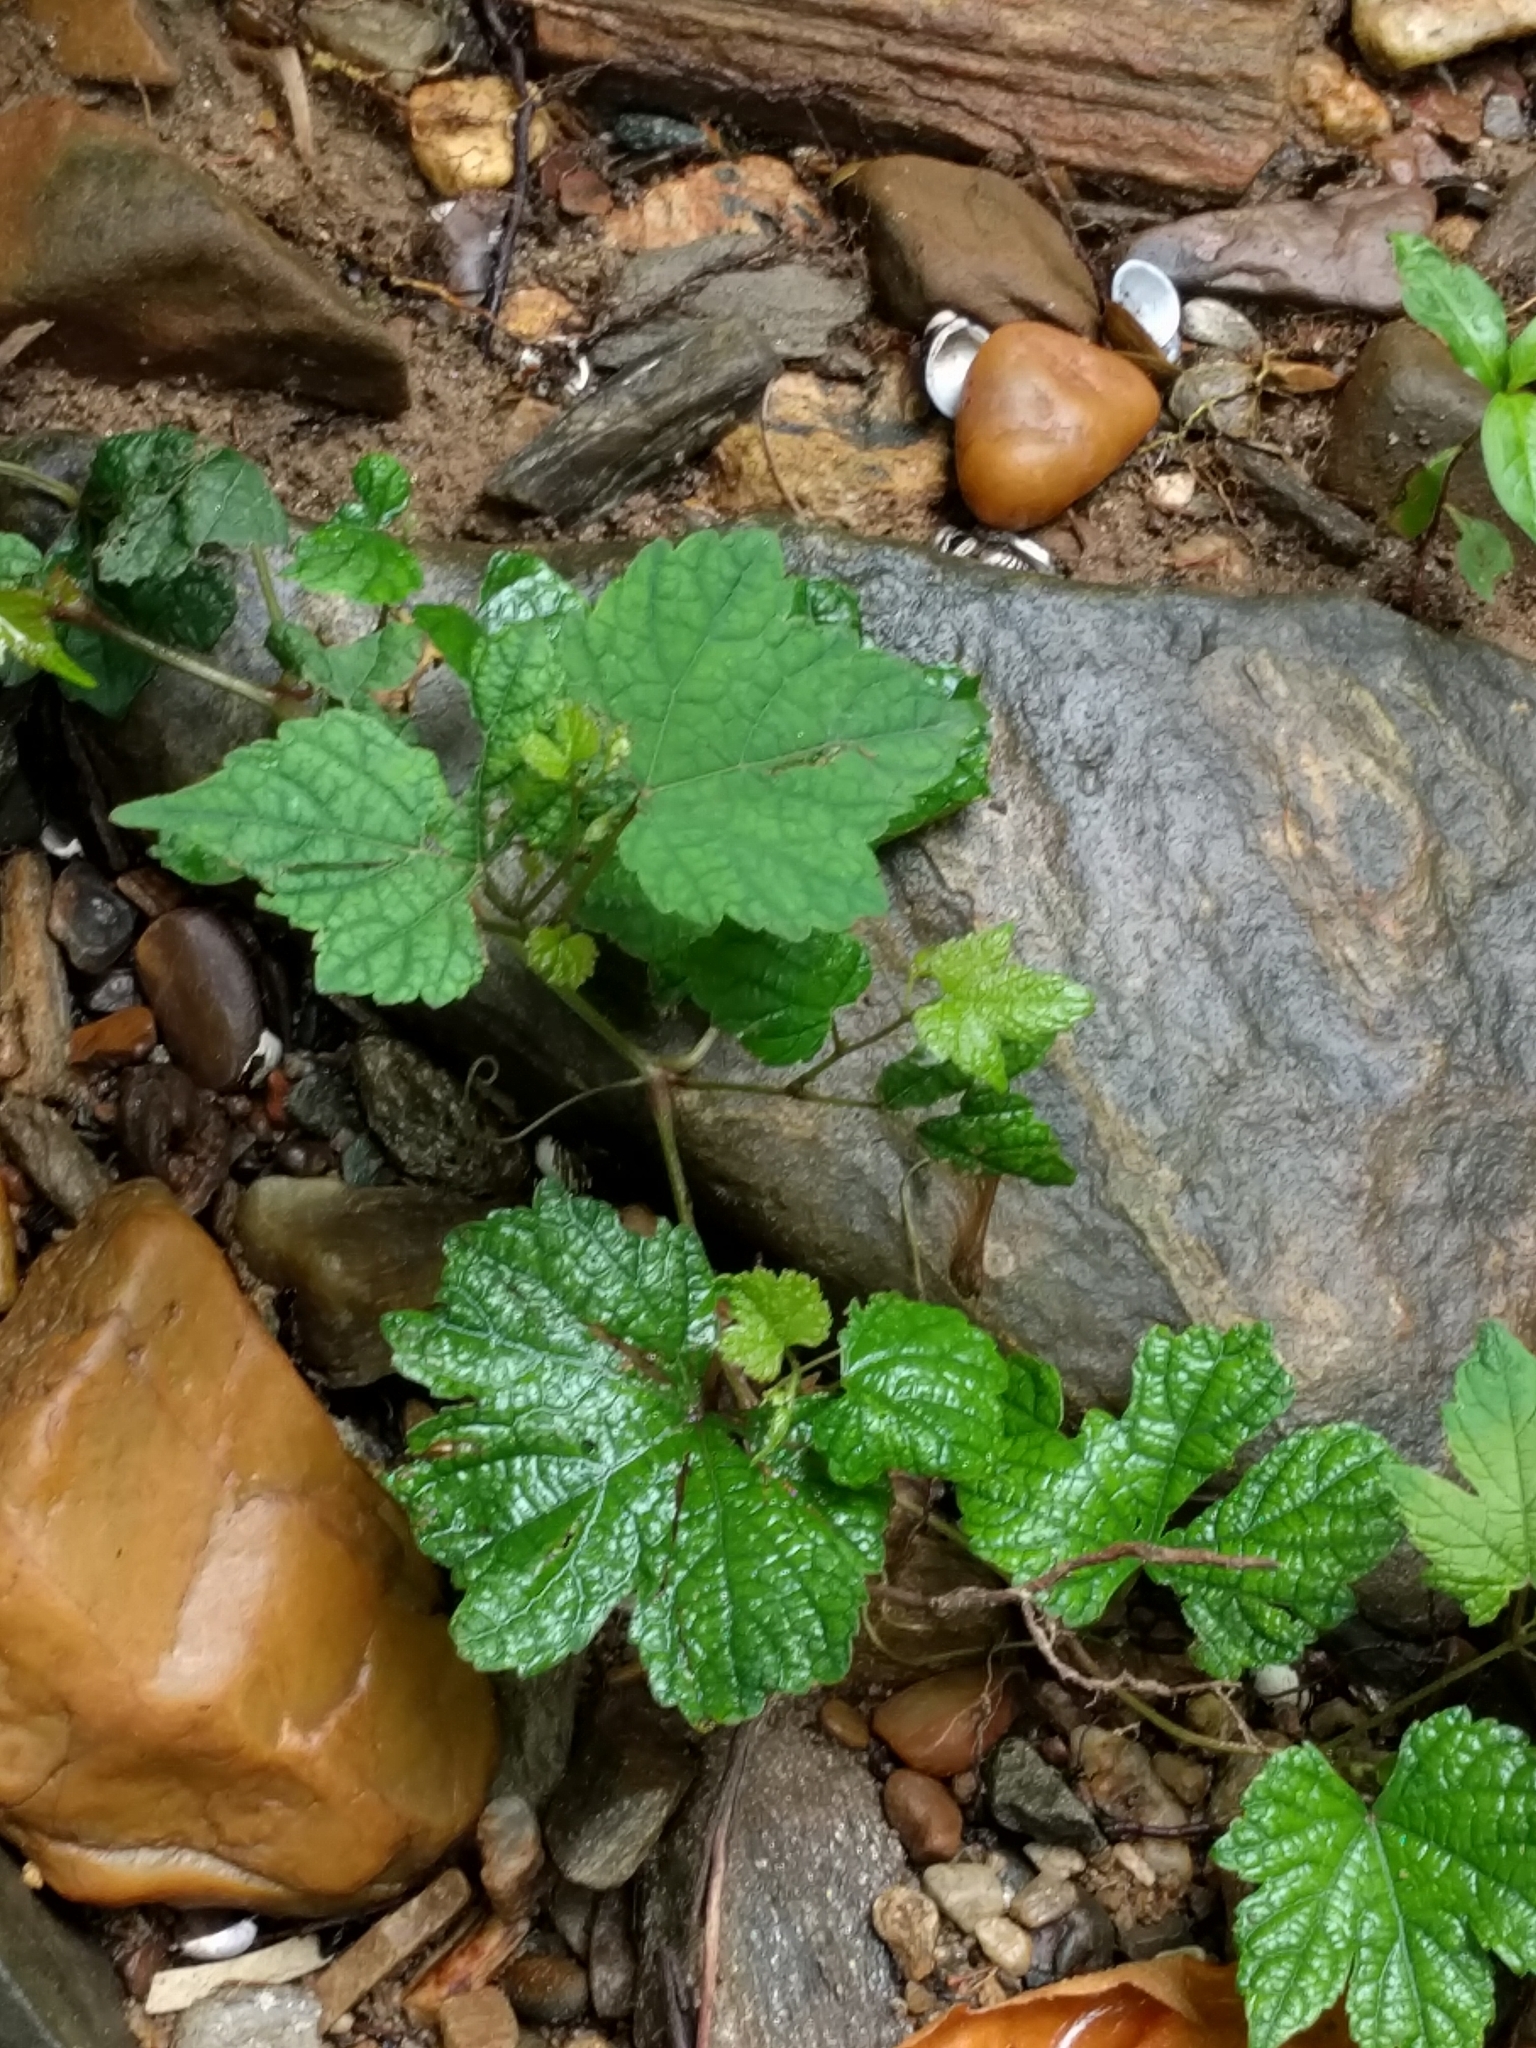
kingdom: Plantae
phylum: Tracheophyta
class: Magnoliopsida
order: Vitales
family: Vitaceae
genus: Ampelopsis
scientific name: Ampelopsis glandulosa
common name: Amur peppervine
